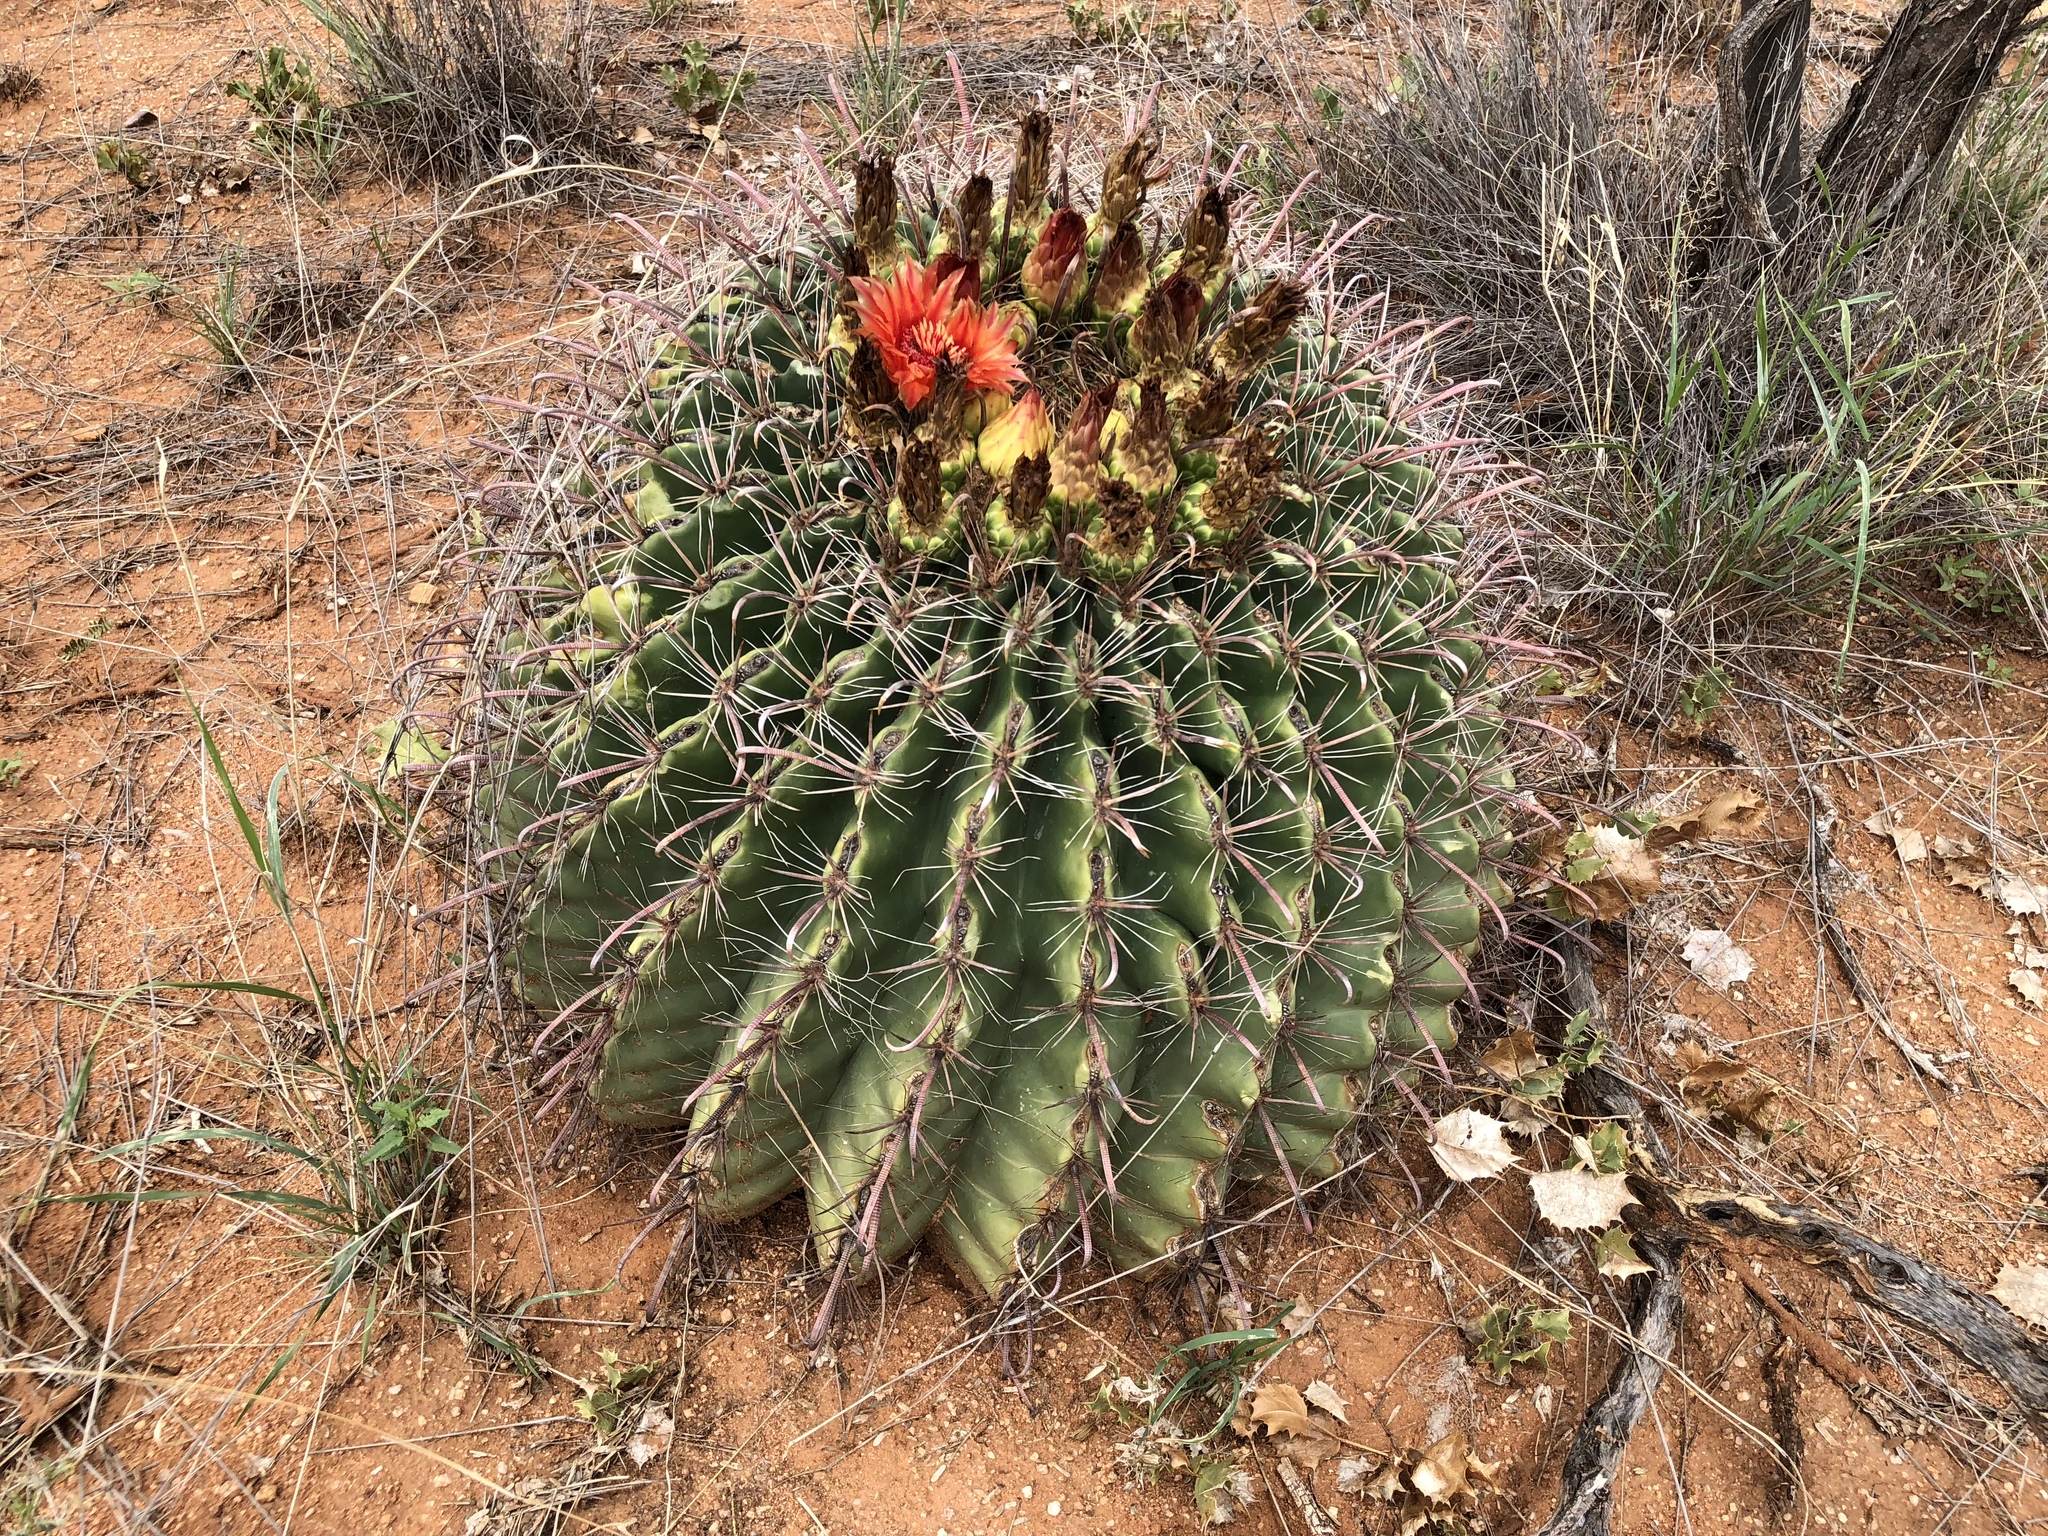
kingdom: Plantae
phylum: Tracheophyta
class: Magnoliopsida
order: Caryophyllales
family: Cactaceae
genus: Ferocactus
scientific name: Ferocactus wislizeni
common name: Candy barrel cactus
